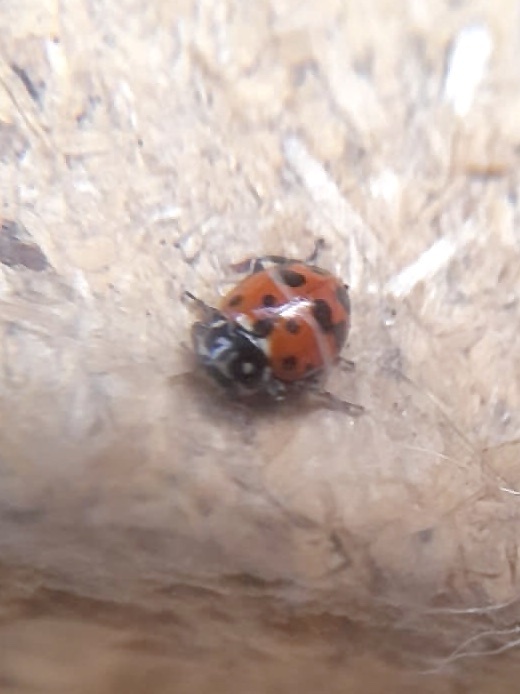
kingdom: Animalia
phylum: Arthropoda
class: Insecta
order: Coleoptera
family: Coccinellidae
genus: Hippodamia
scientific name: Hippodamia variegata
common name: Ladybird beetle
